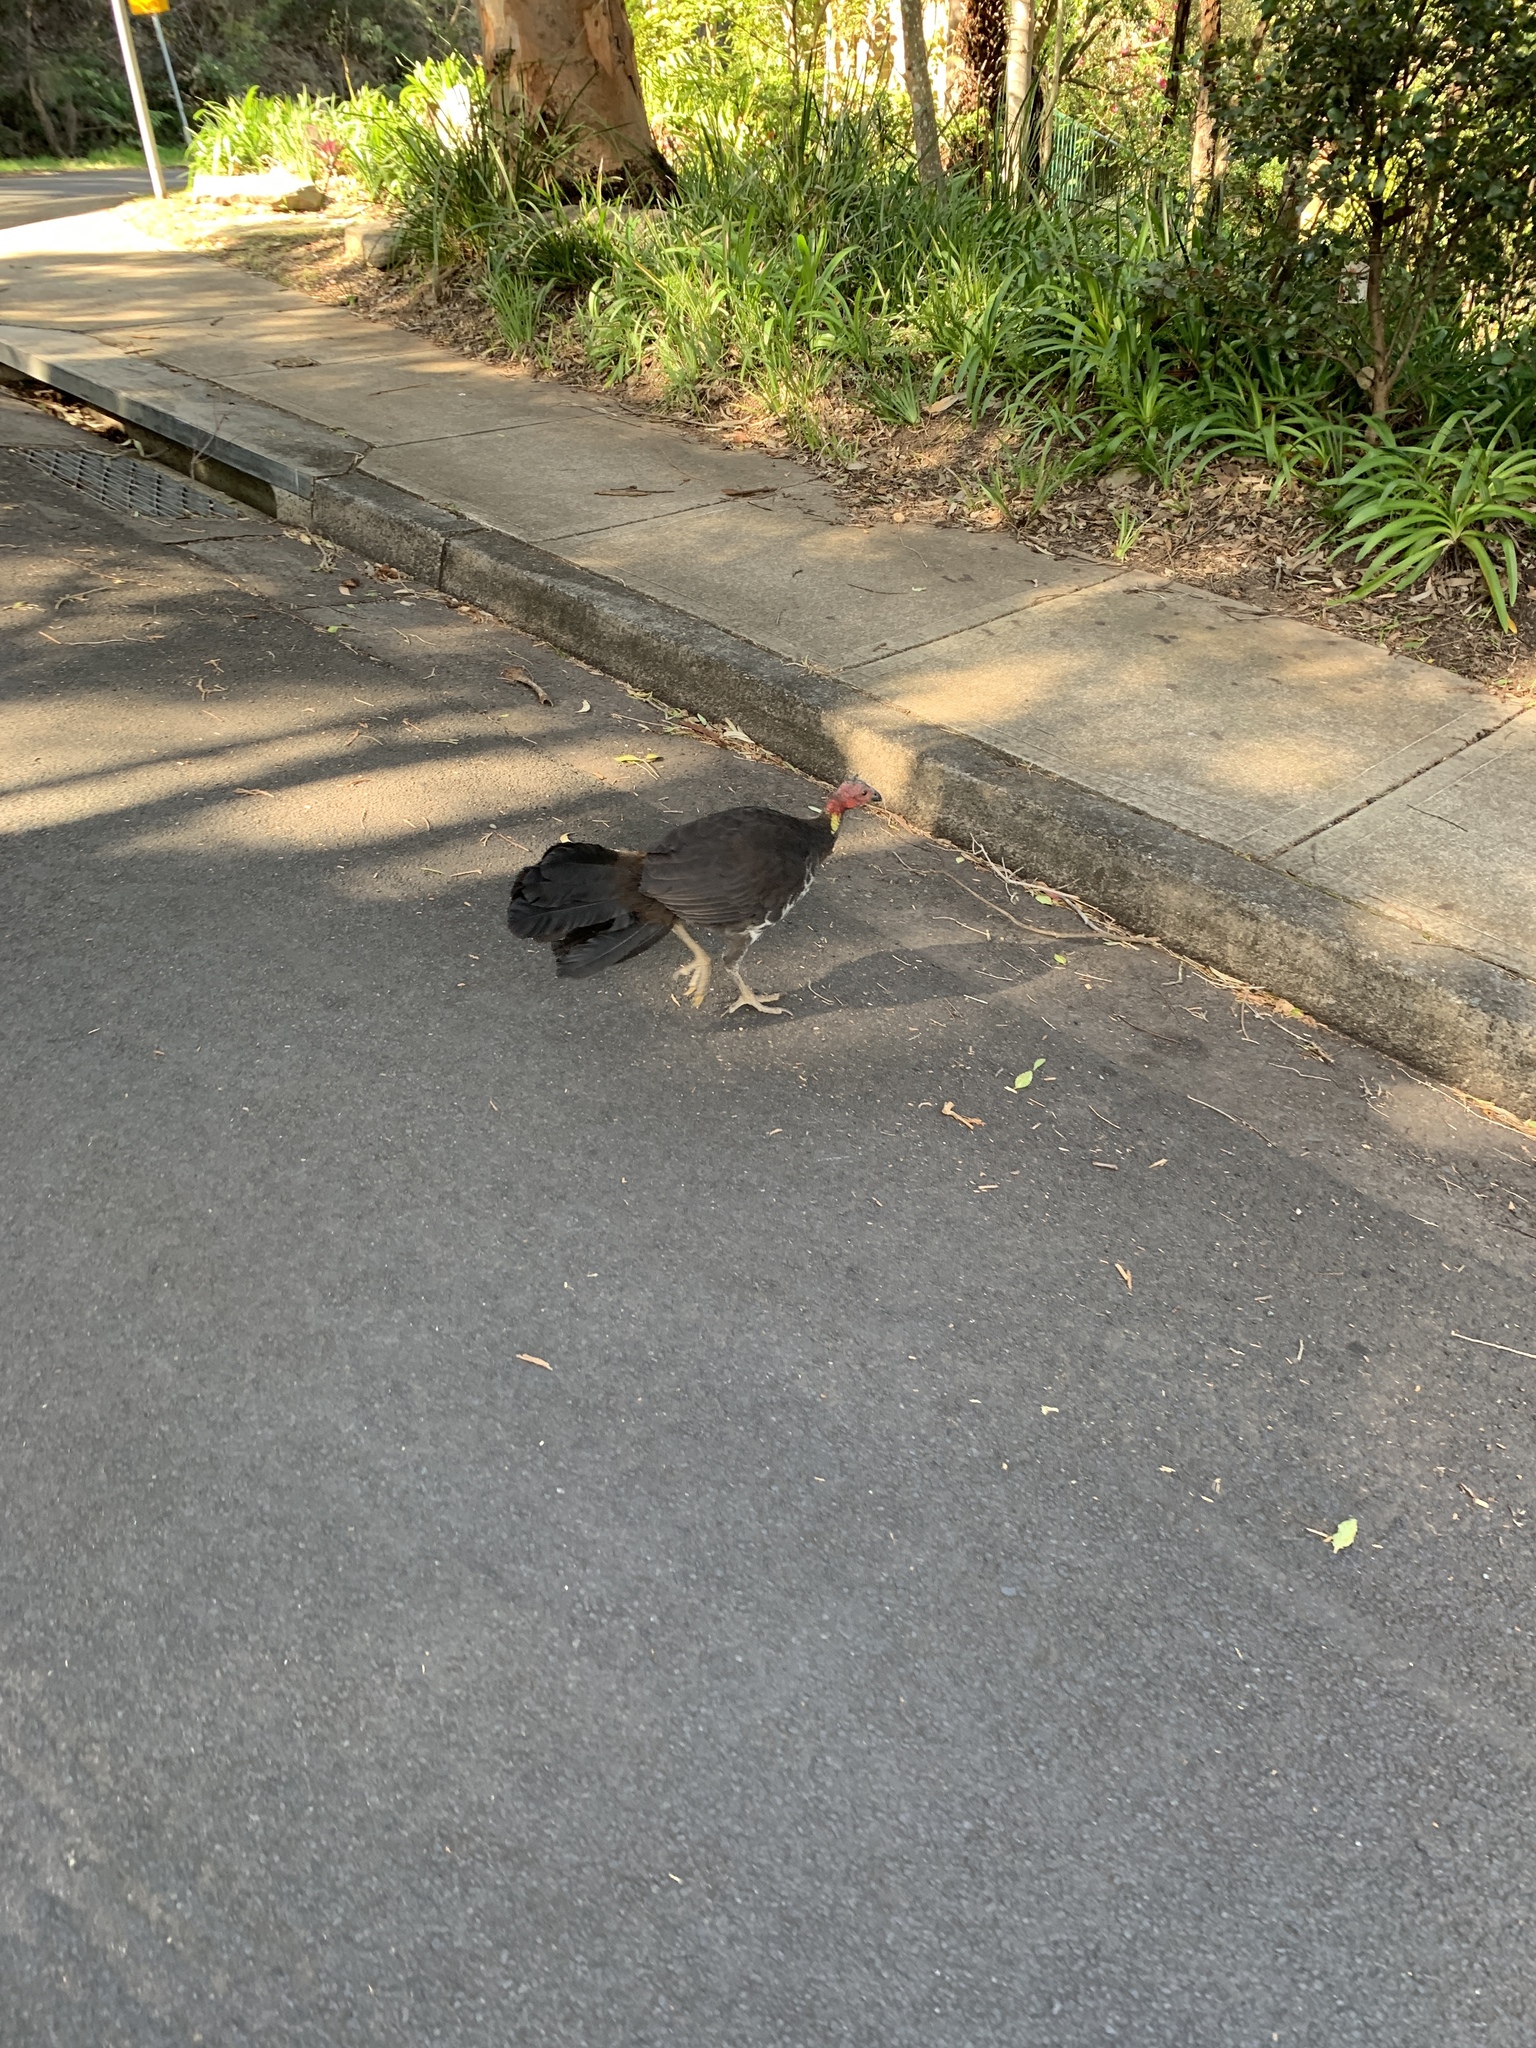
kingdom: Animalia
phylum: Chordata
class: Aves
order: Galliformes
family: Megapodiidae
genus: Alectura
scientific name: Alectura lathami
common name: Australian brushturkey
